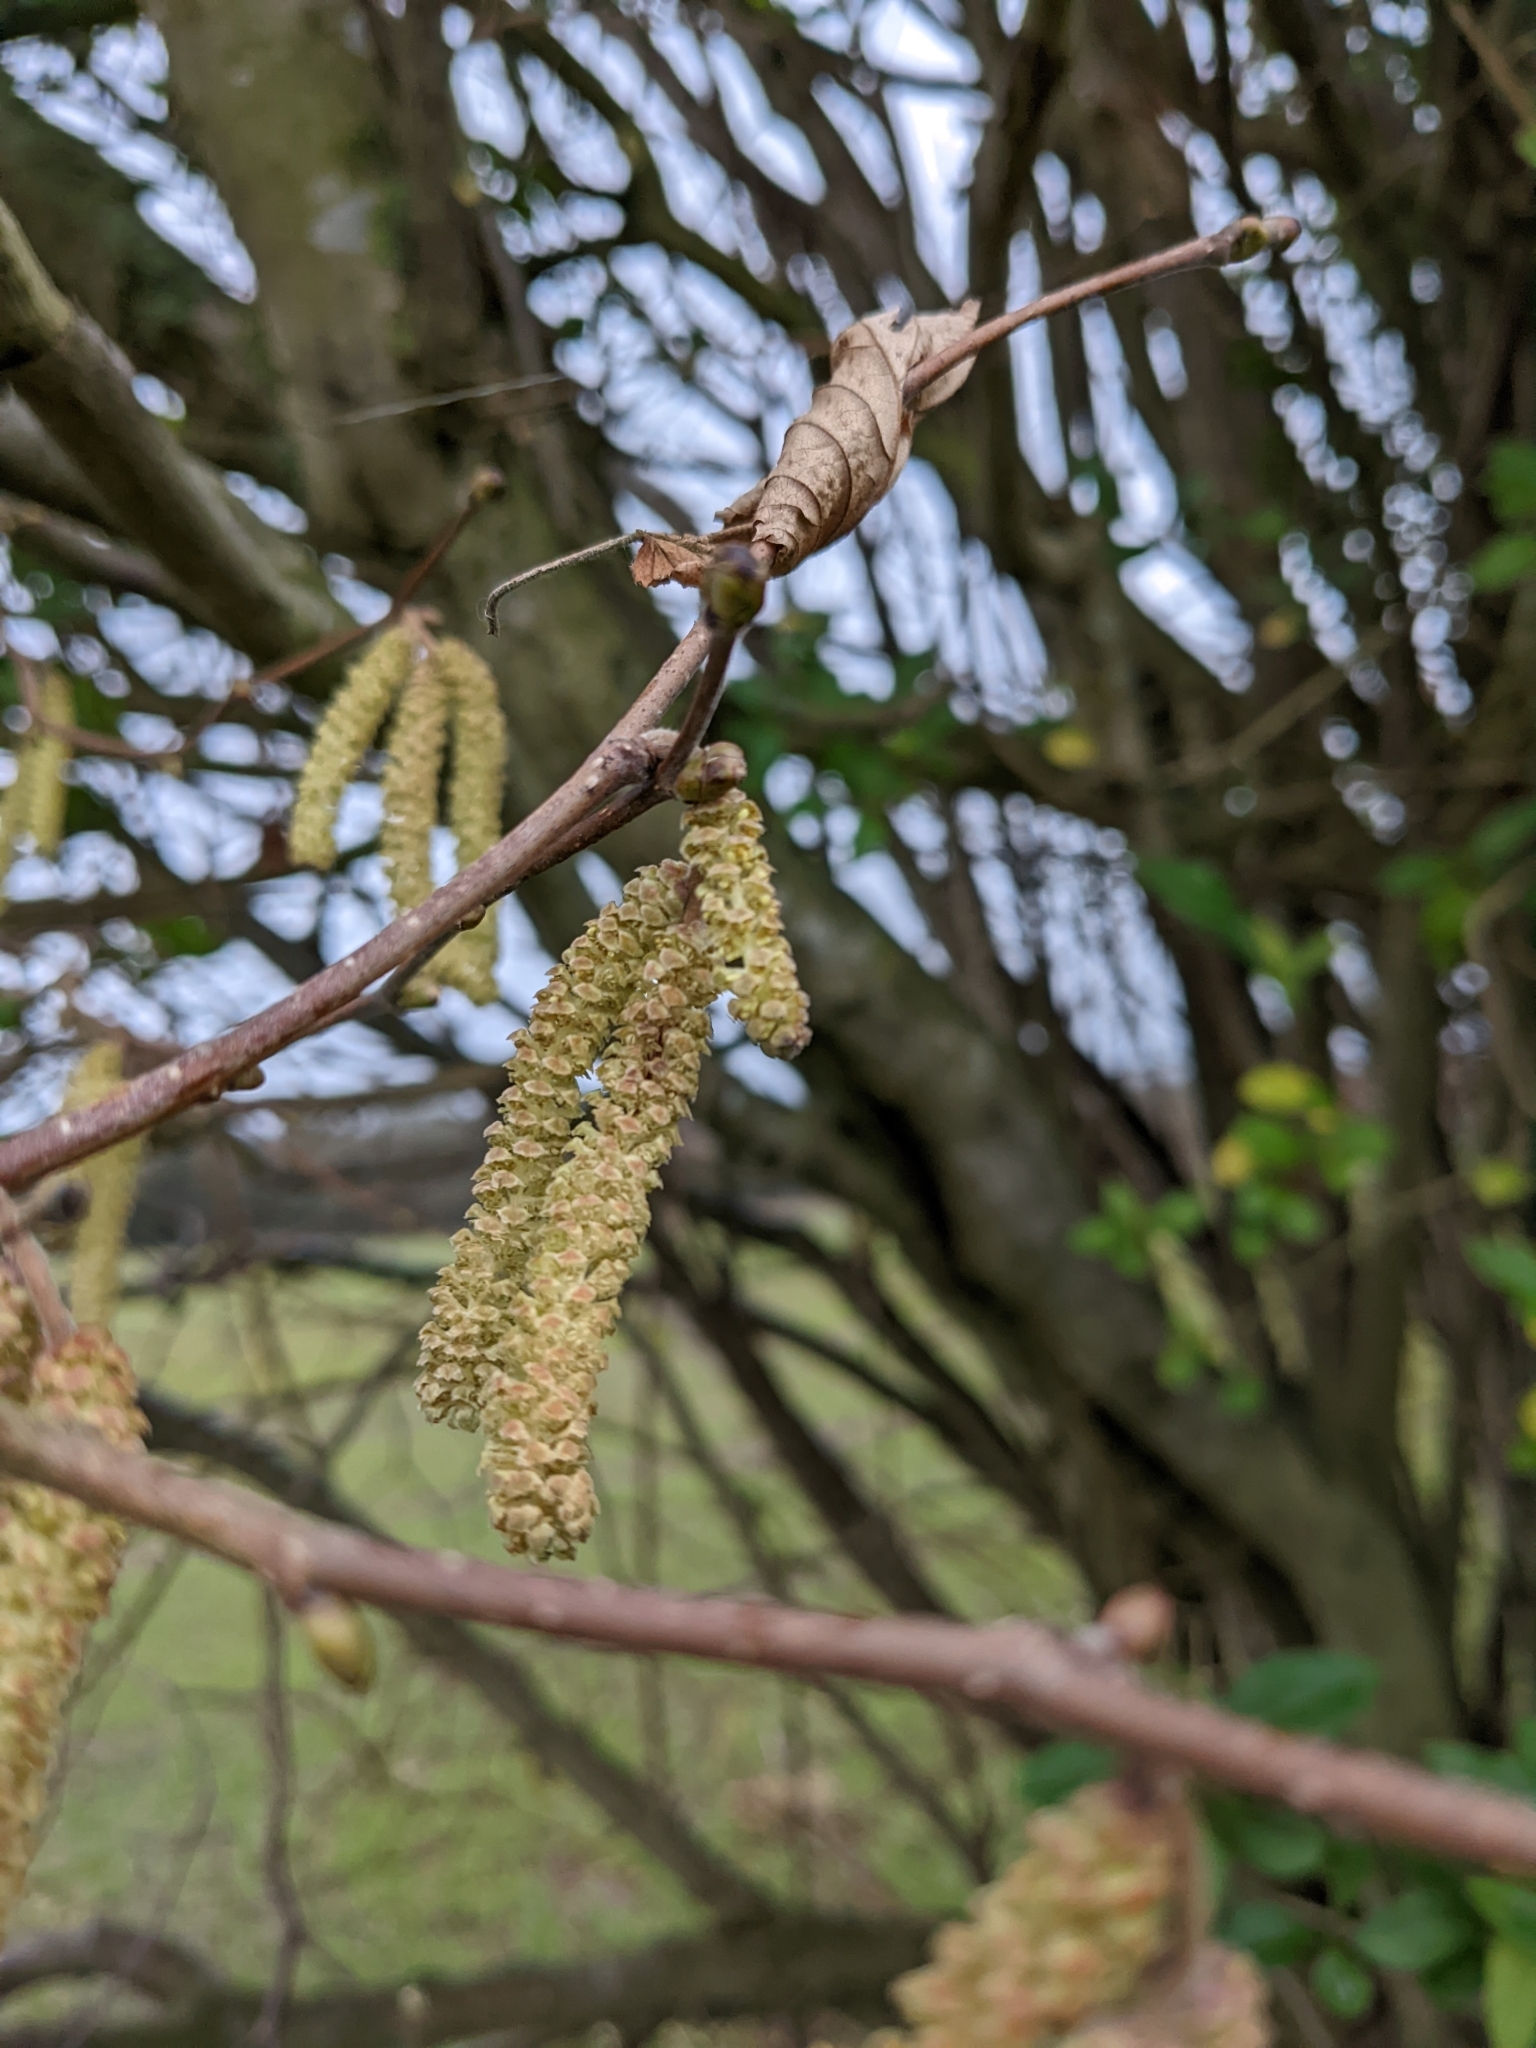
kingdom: Plantae
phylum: Tracheophyta
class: Magnoliopsida
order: Fagales
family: Betulaceae
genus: Corylus
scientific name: Corylus avellana
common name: European hazel
